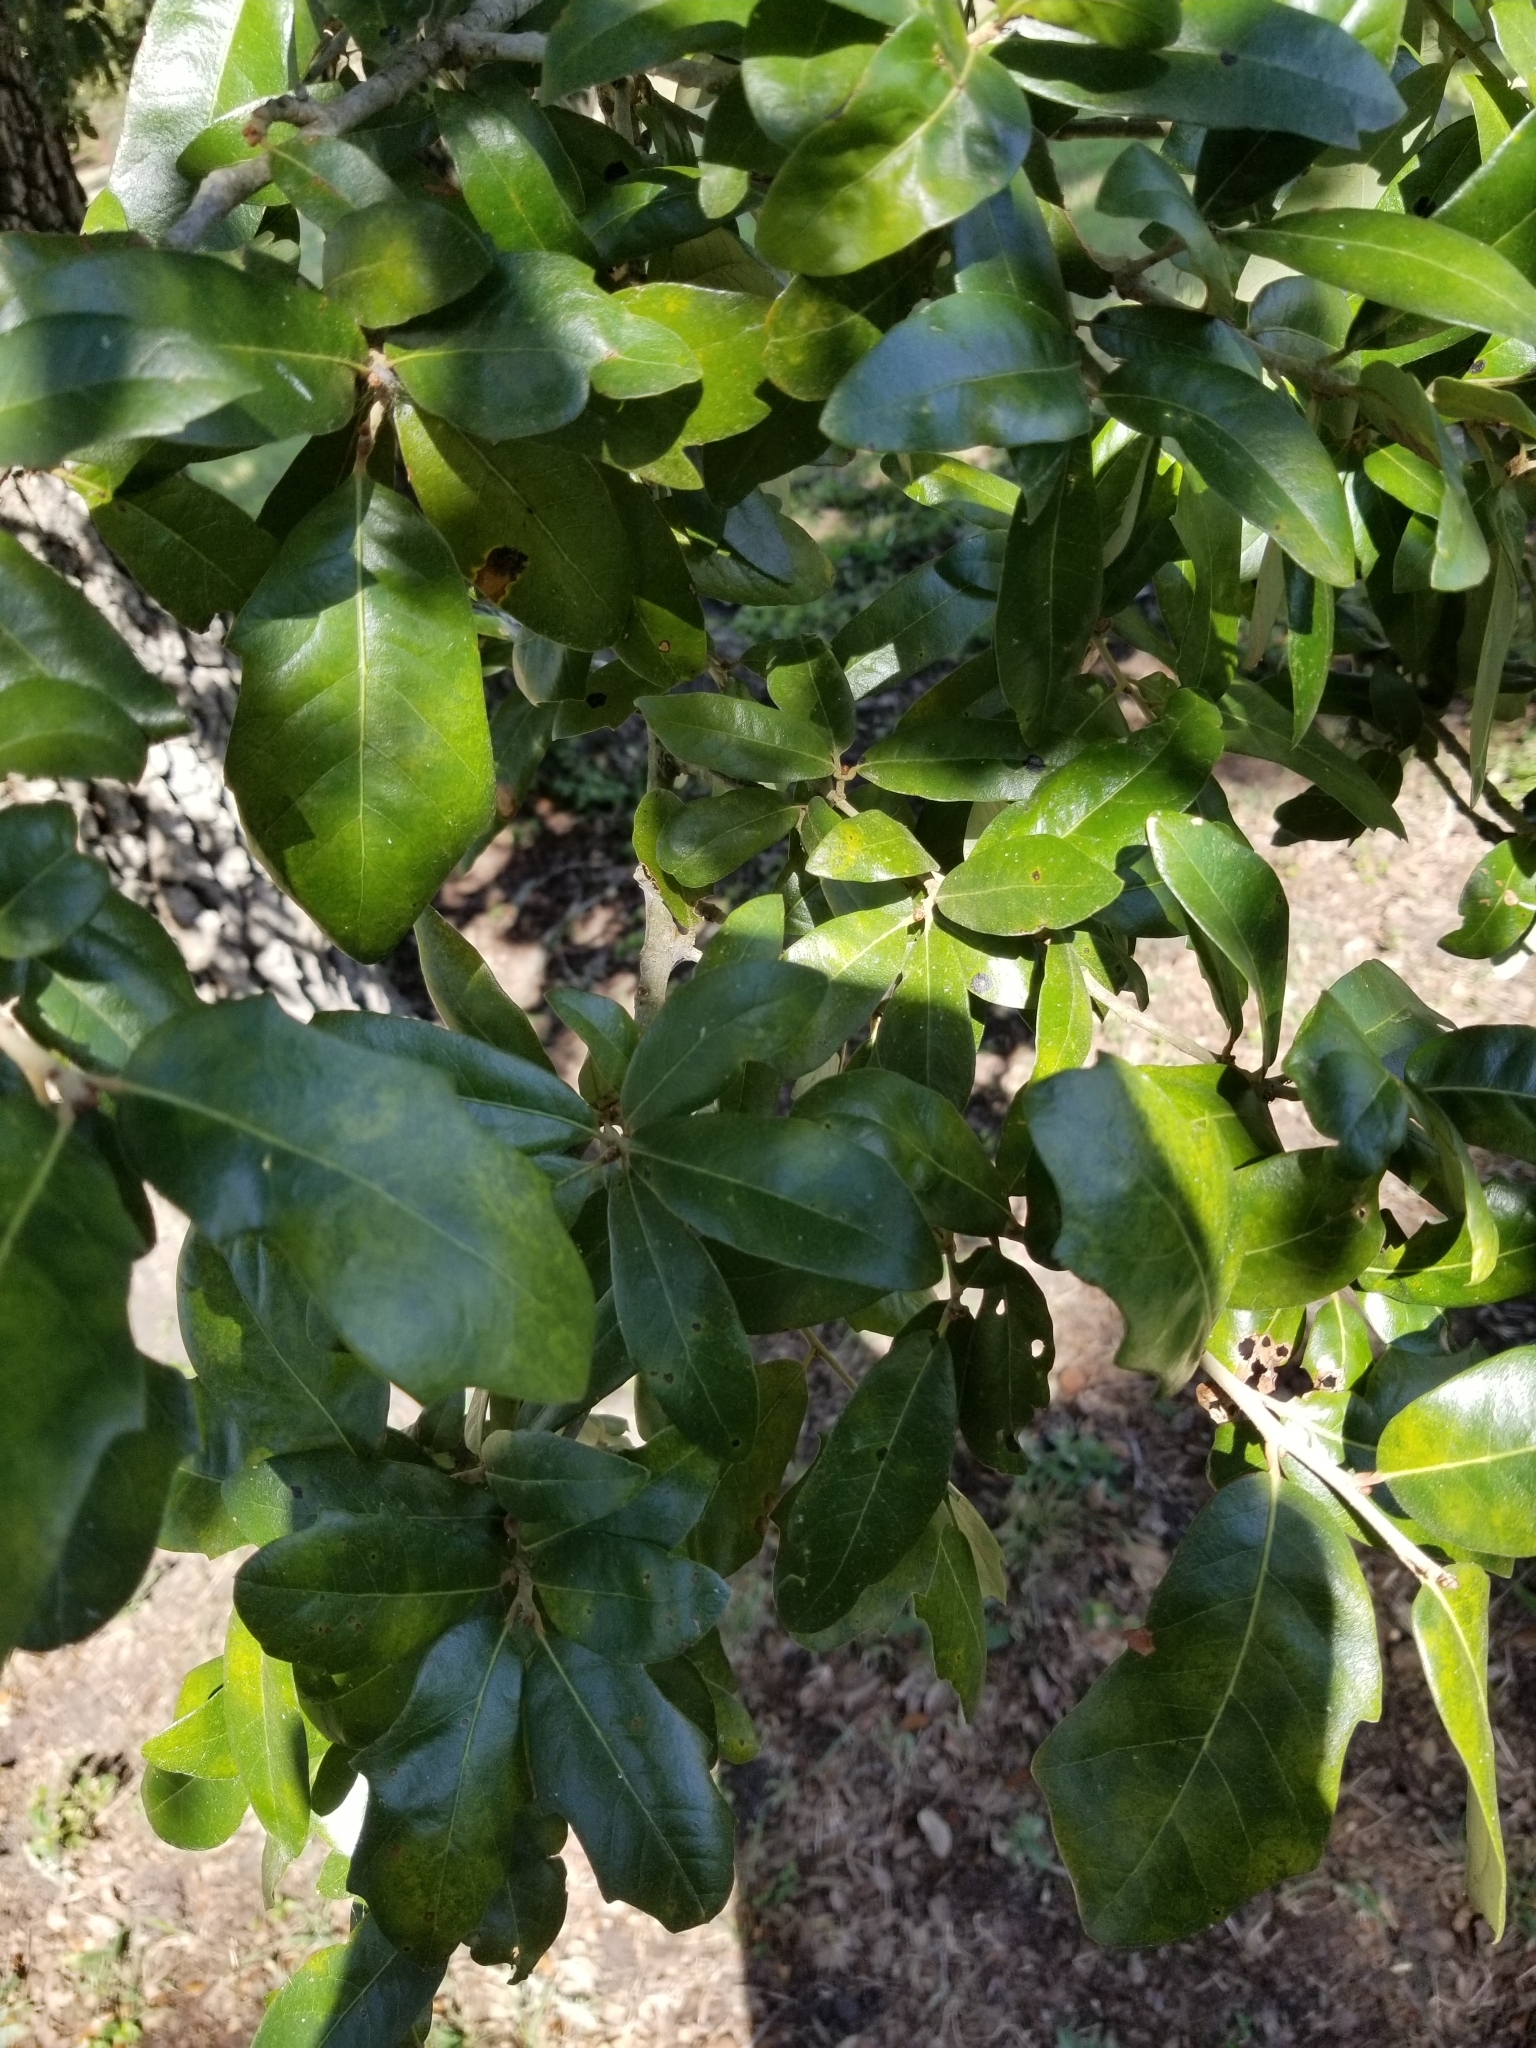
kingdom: Plantae
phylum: Tracheophyta
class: Magnoliopsida
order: Fagales
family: Fagaceae
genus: Quercus
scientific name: Quercus virginiana
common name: Southern live oak
